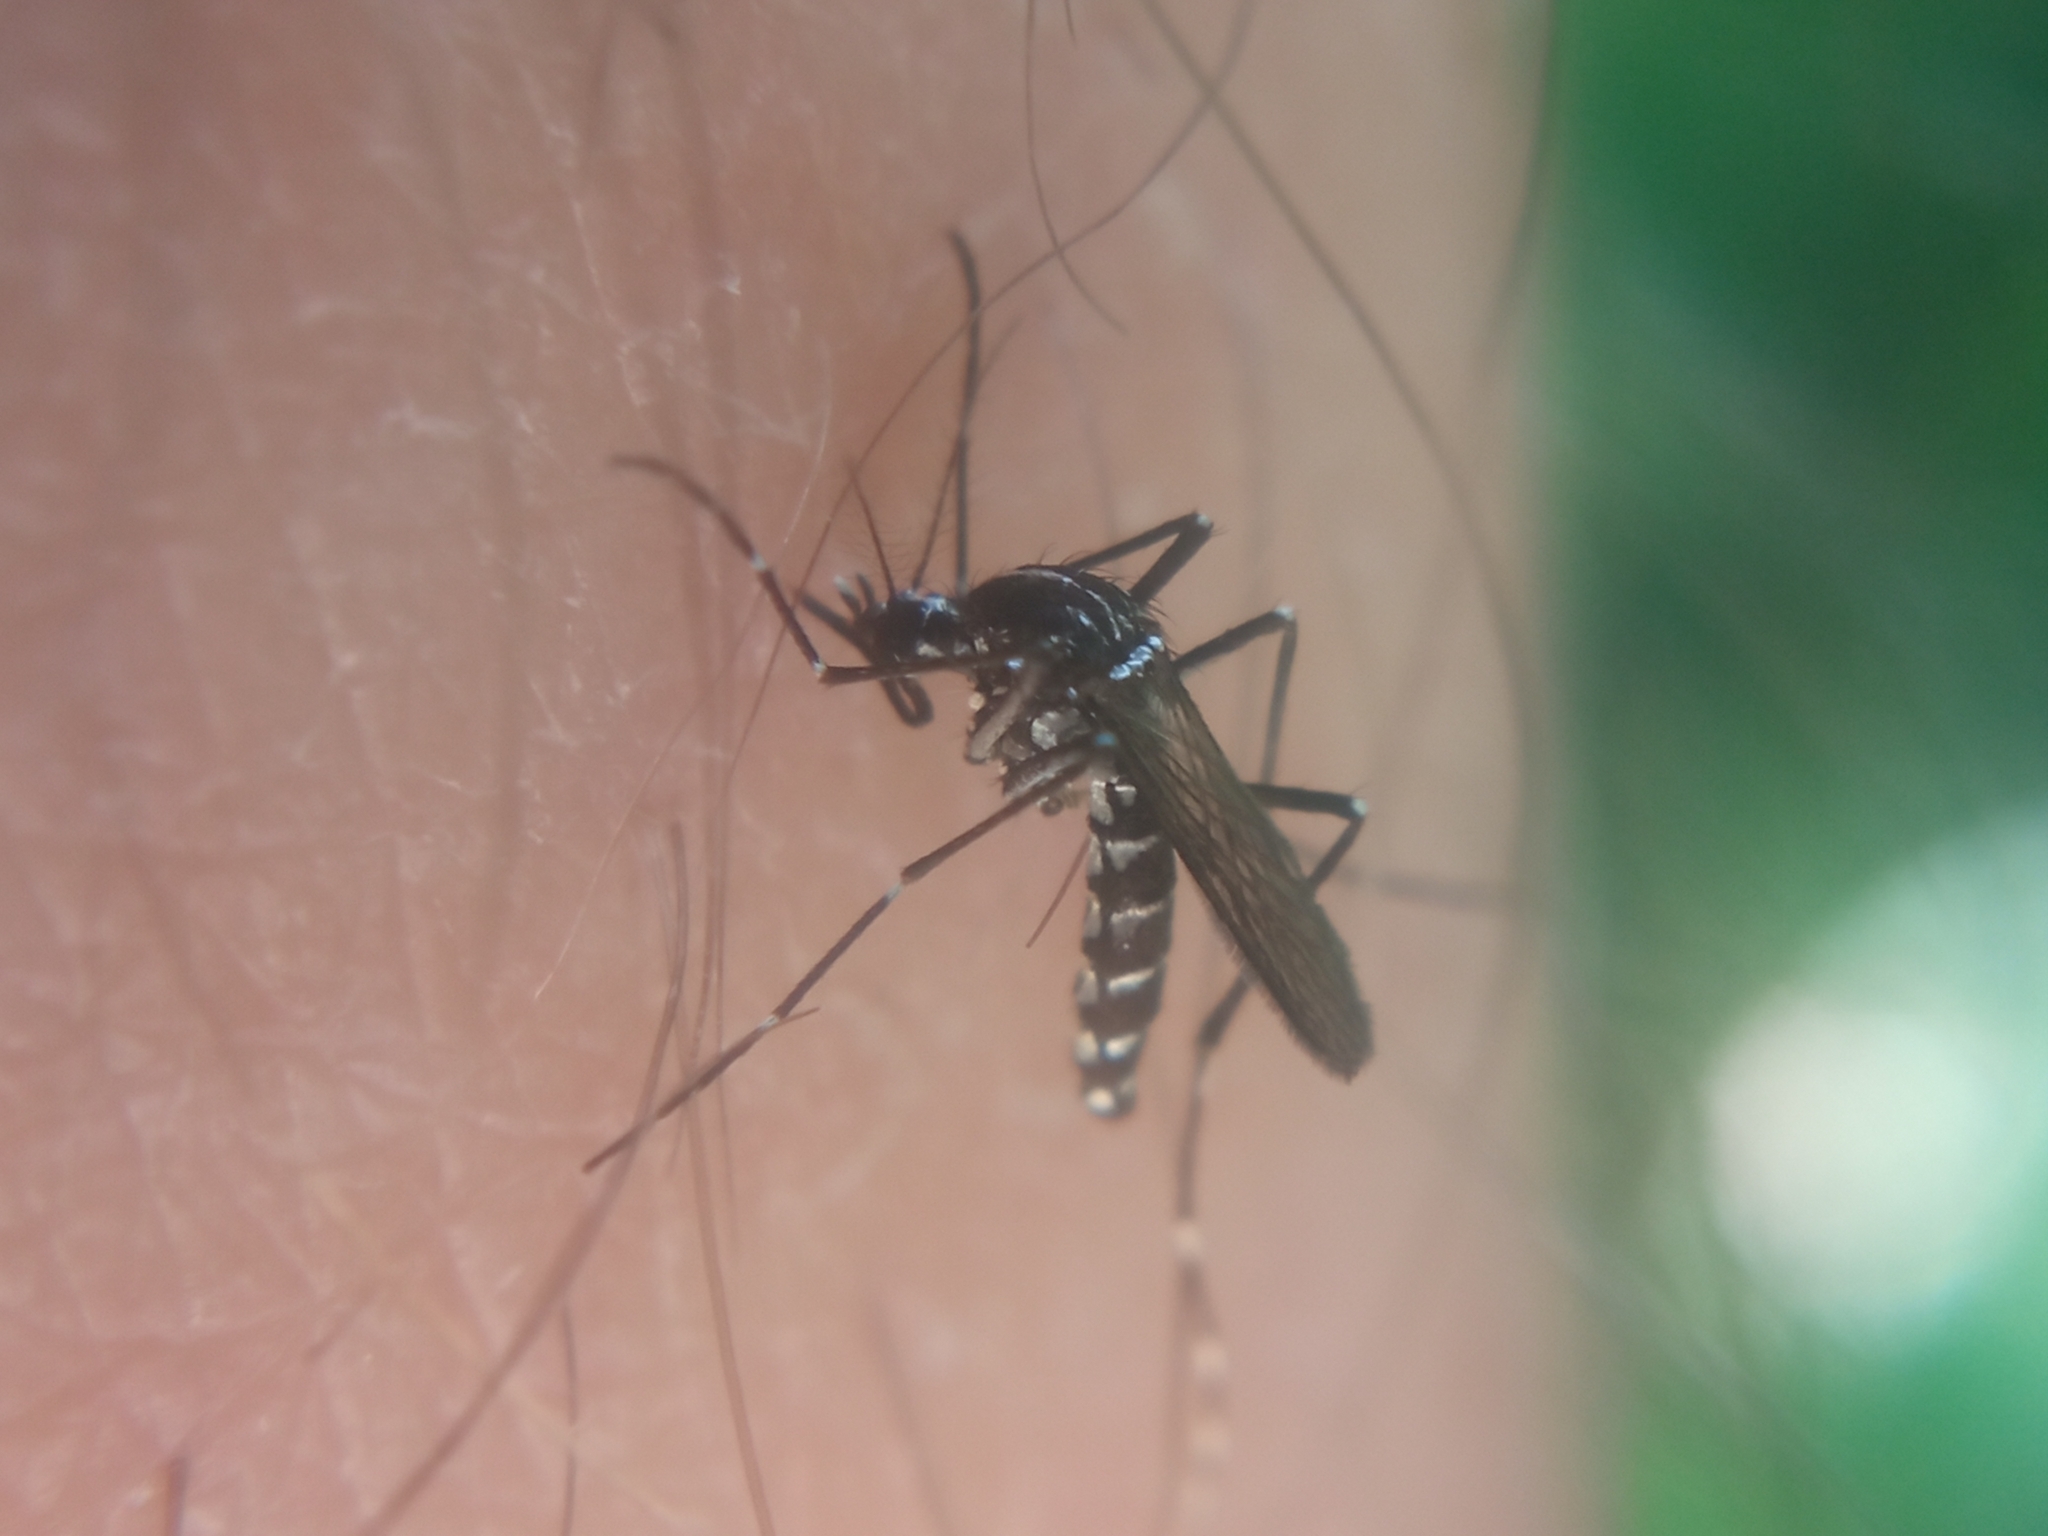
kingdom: Animalia
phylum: Arthropoda
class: Insecta
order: Diptera
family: Culicidae
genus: Aedes
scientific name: Aedes albopictus
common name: Tiger mosquito
